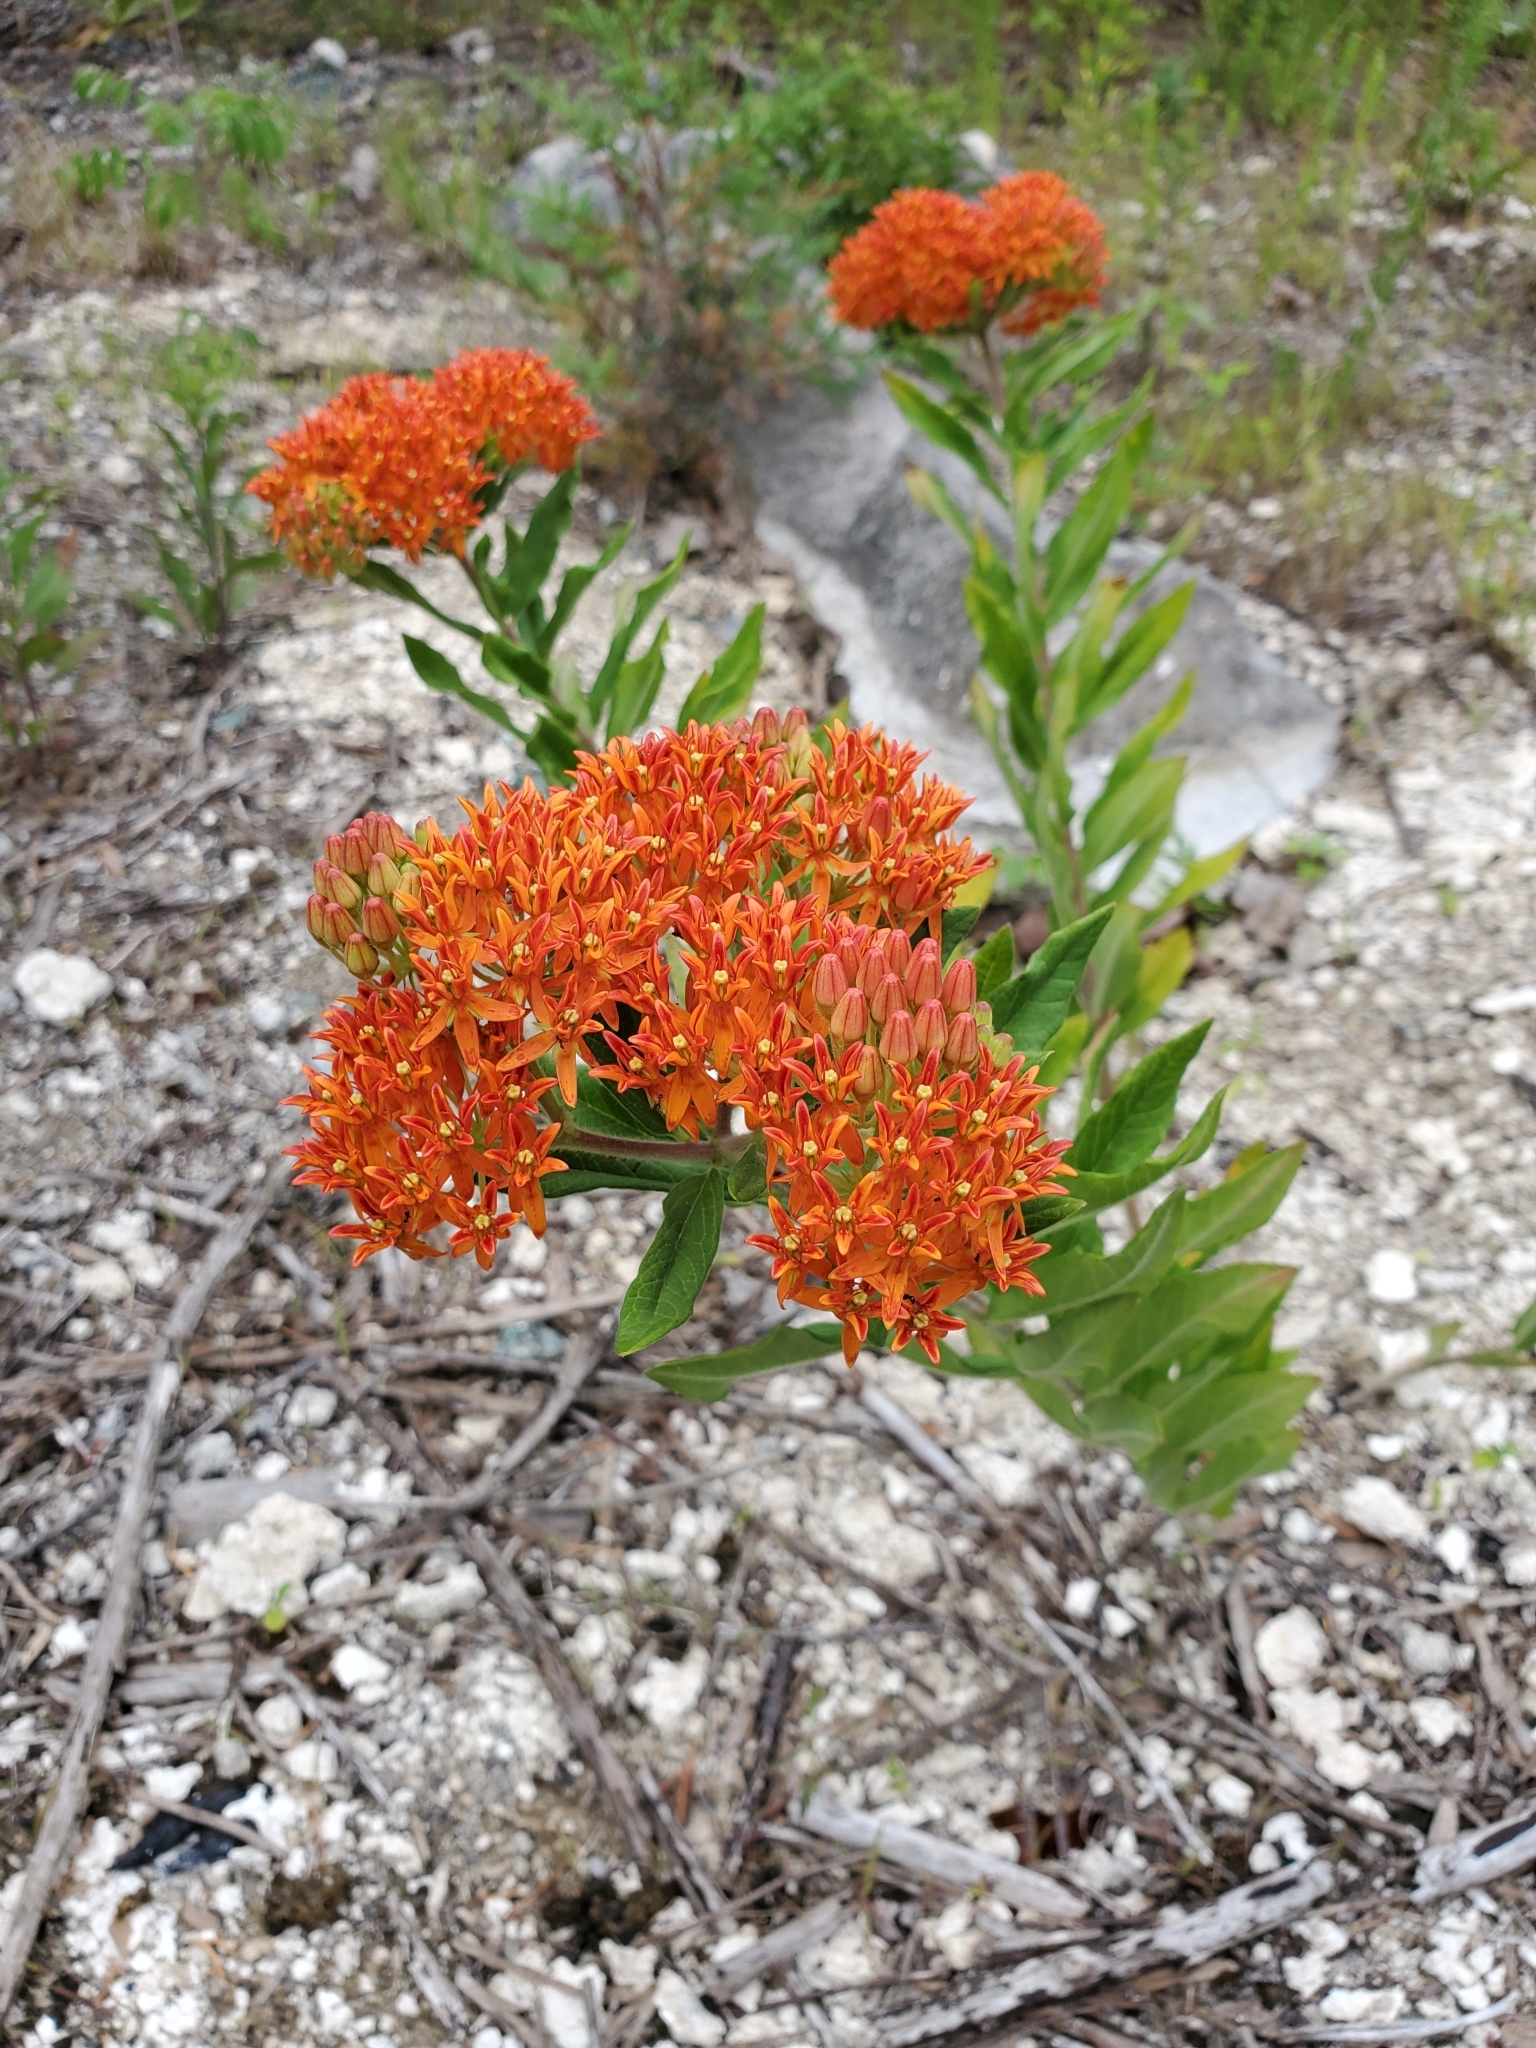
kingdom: Plantae
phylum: Tracheophyta
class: Magnoliopsida
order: Gentianales
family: Apocynaceae
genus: Asclepias
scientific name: Asclepias tuberosa
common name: Butterfly milkweed
